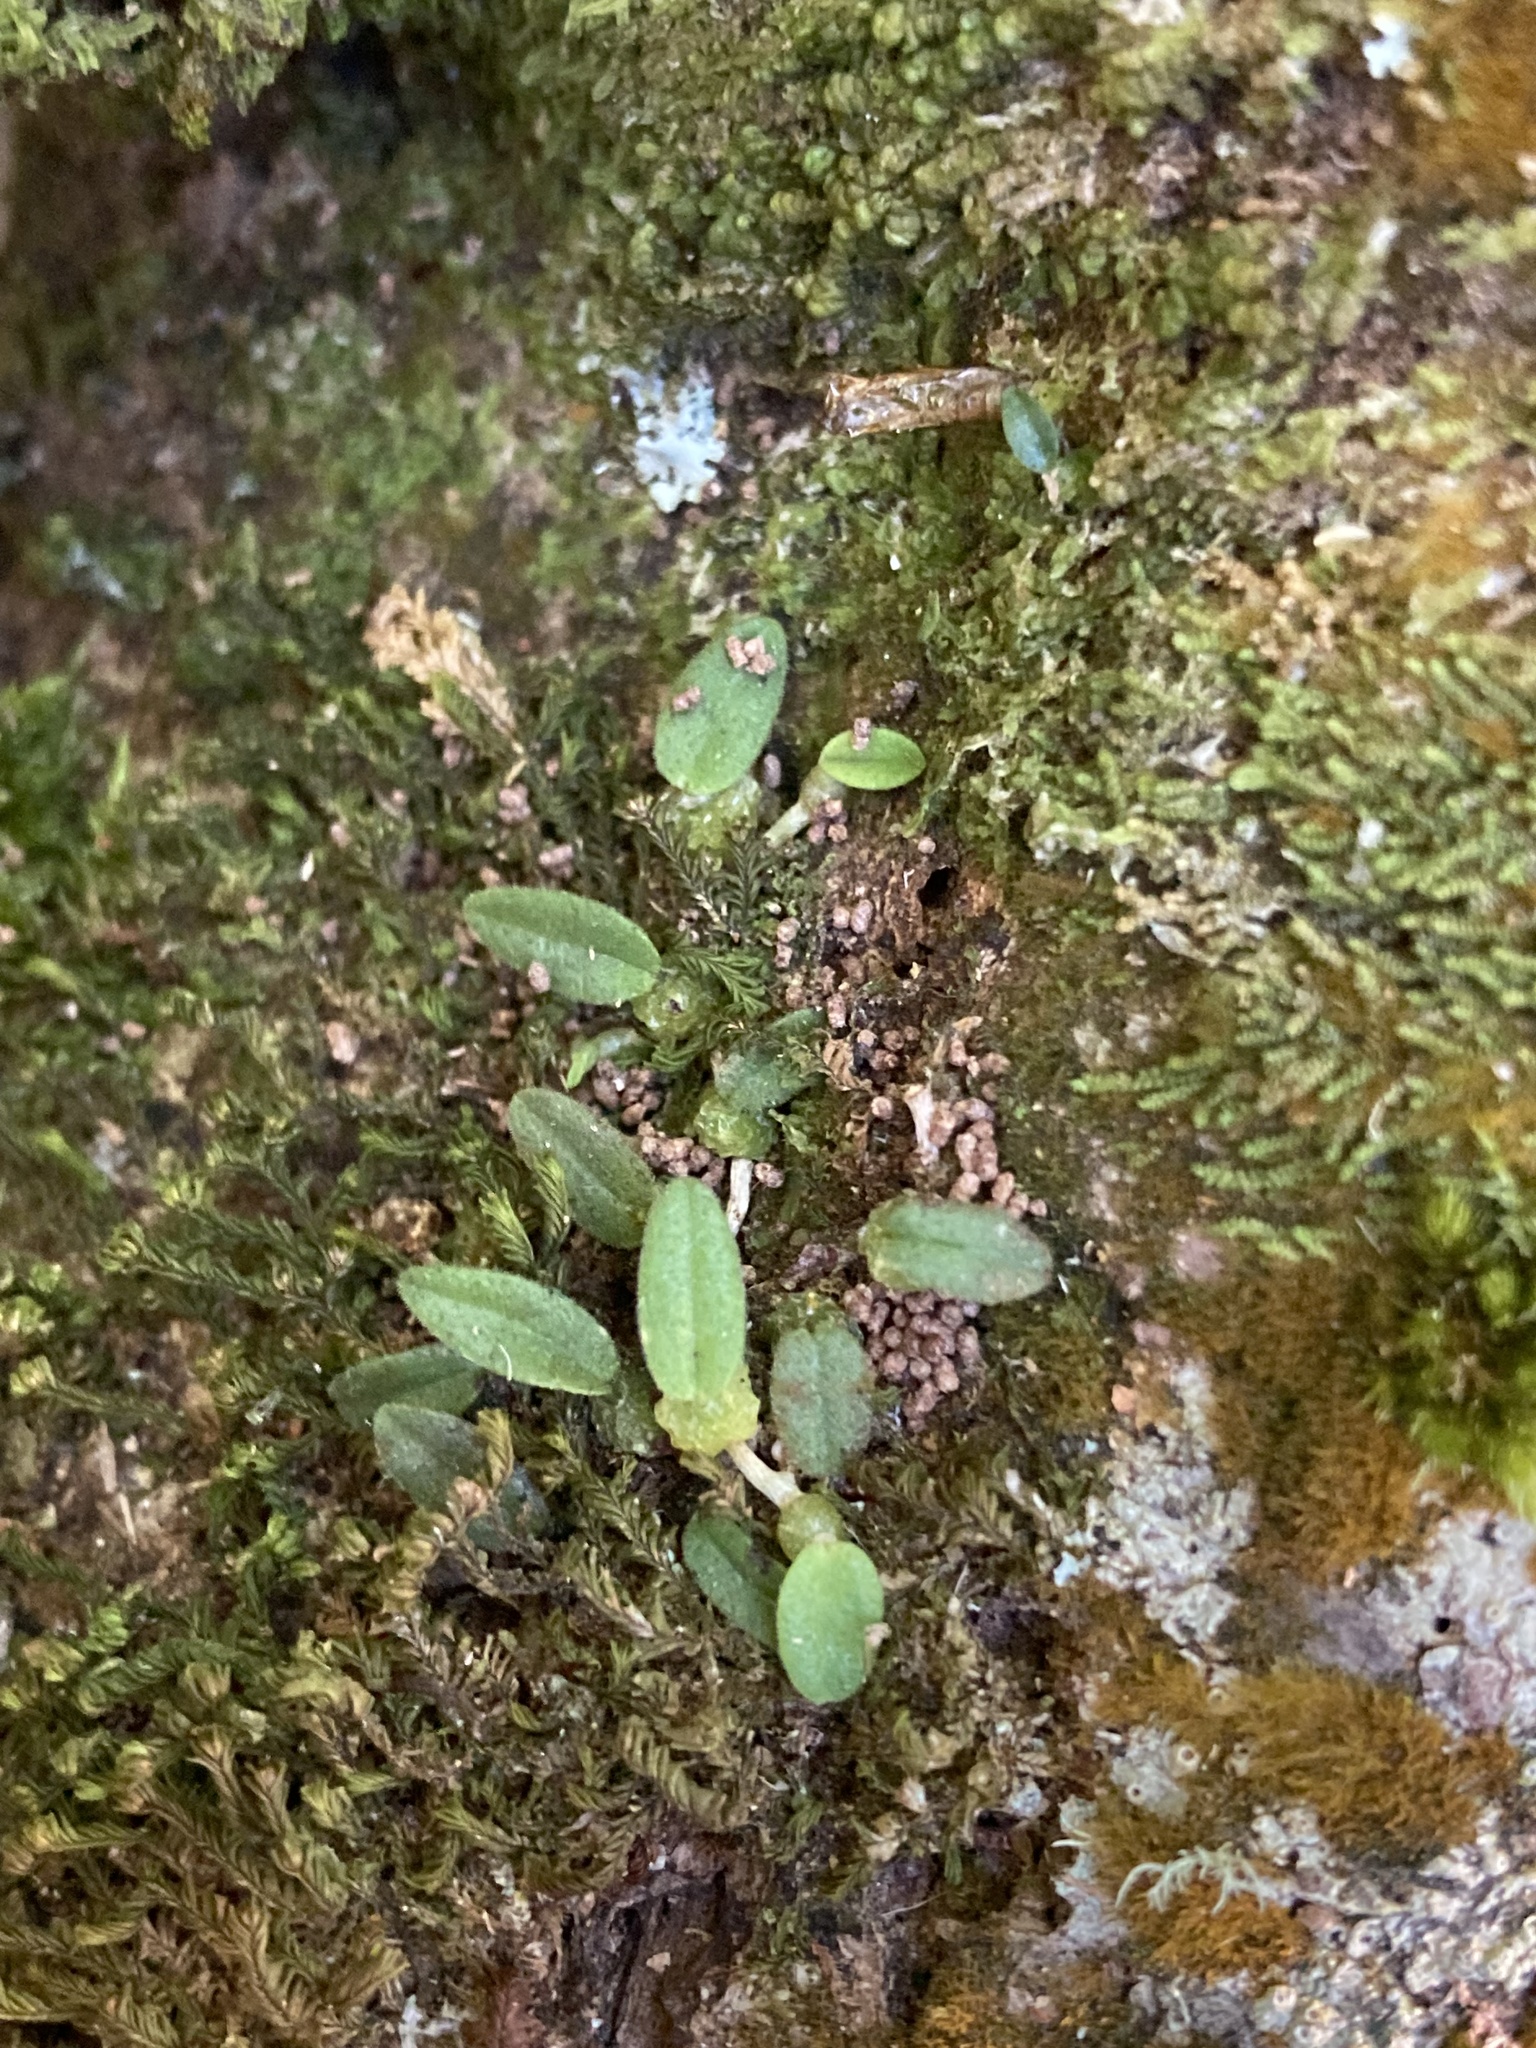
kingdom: Plantae
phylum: Tracheophyta
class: Liliopsida
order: Asparagales
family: Orchidaceae
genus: Bulbophyllum
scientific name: Bulbophyllum pygmaeum
